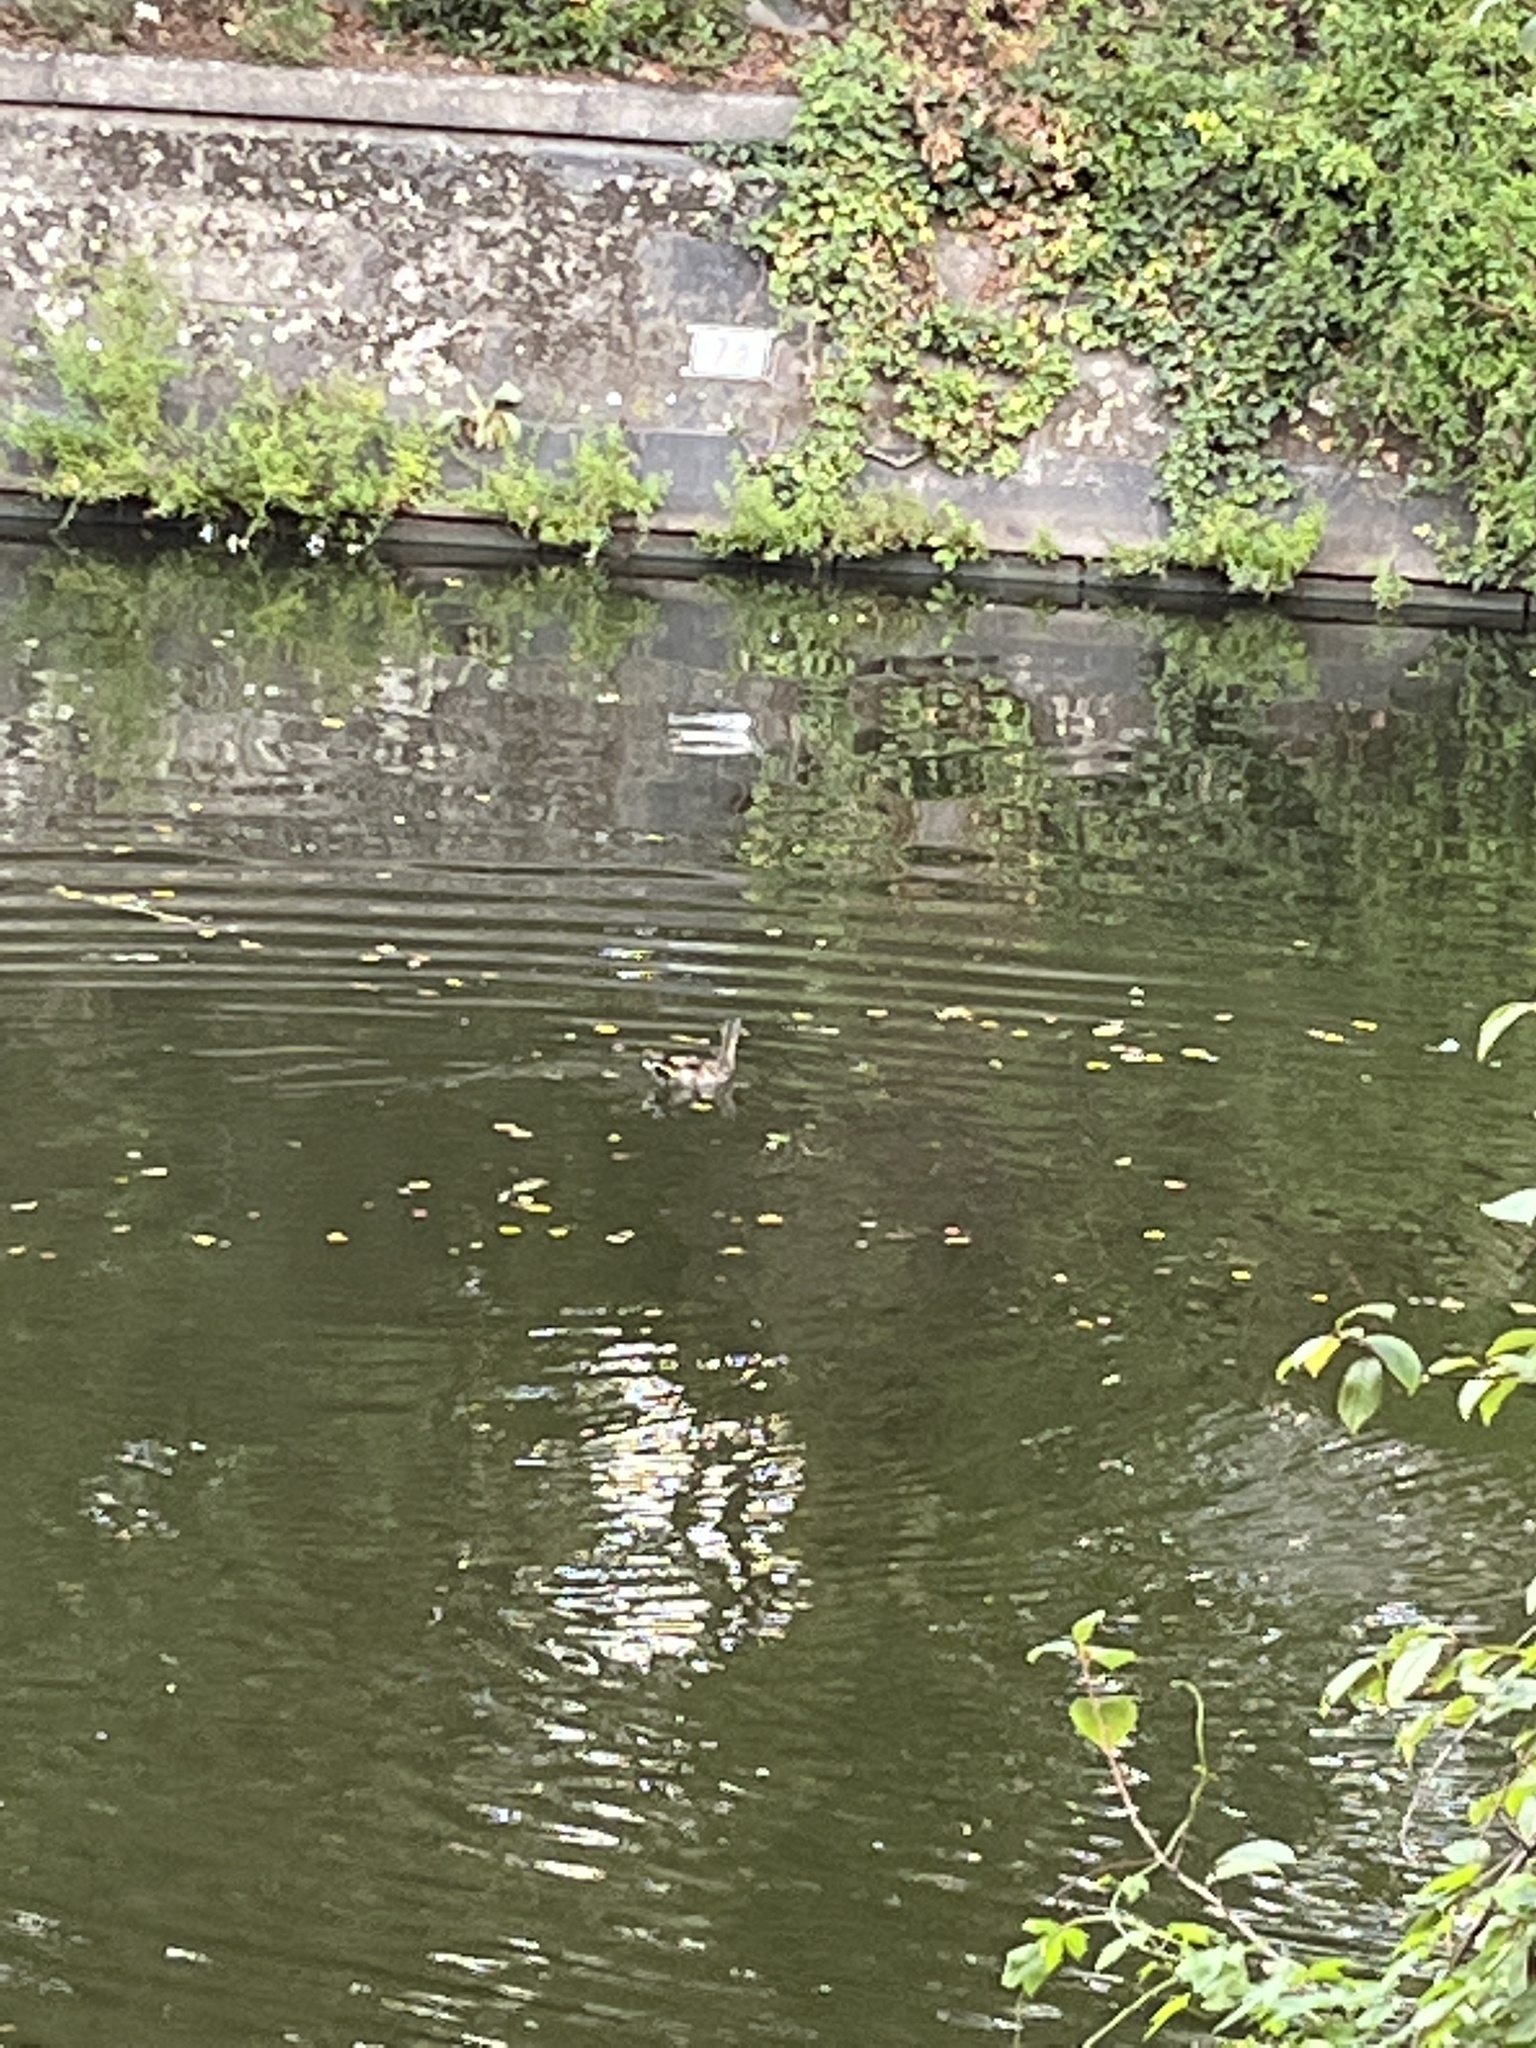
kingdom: Animalia
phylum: Chordata
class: Aves
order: Anseriformes
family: Anatidae
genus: Anas
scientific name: Anas platyrhynchos
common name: Mallard
